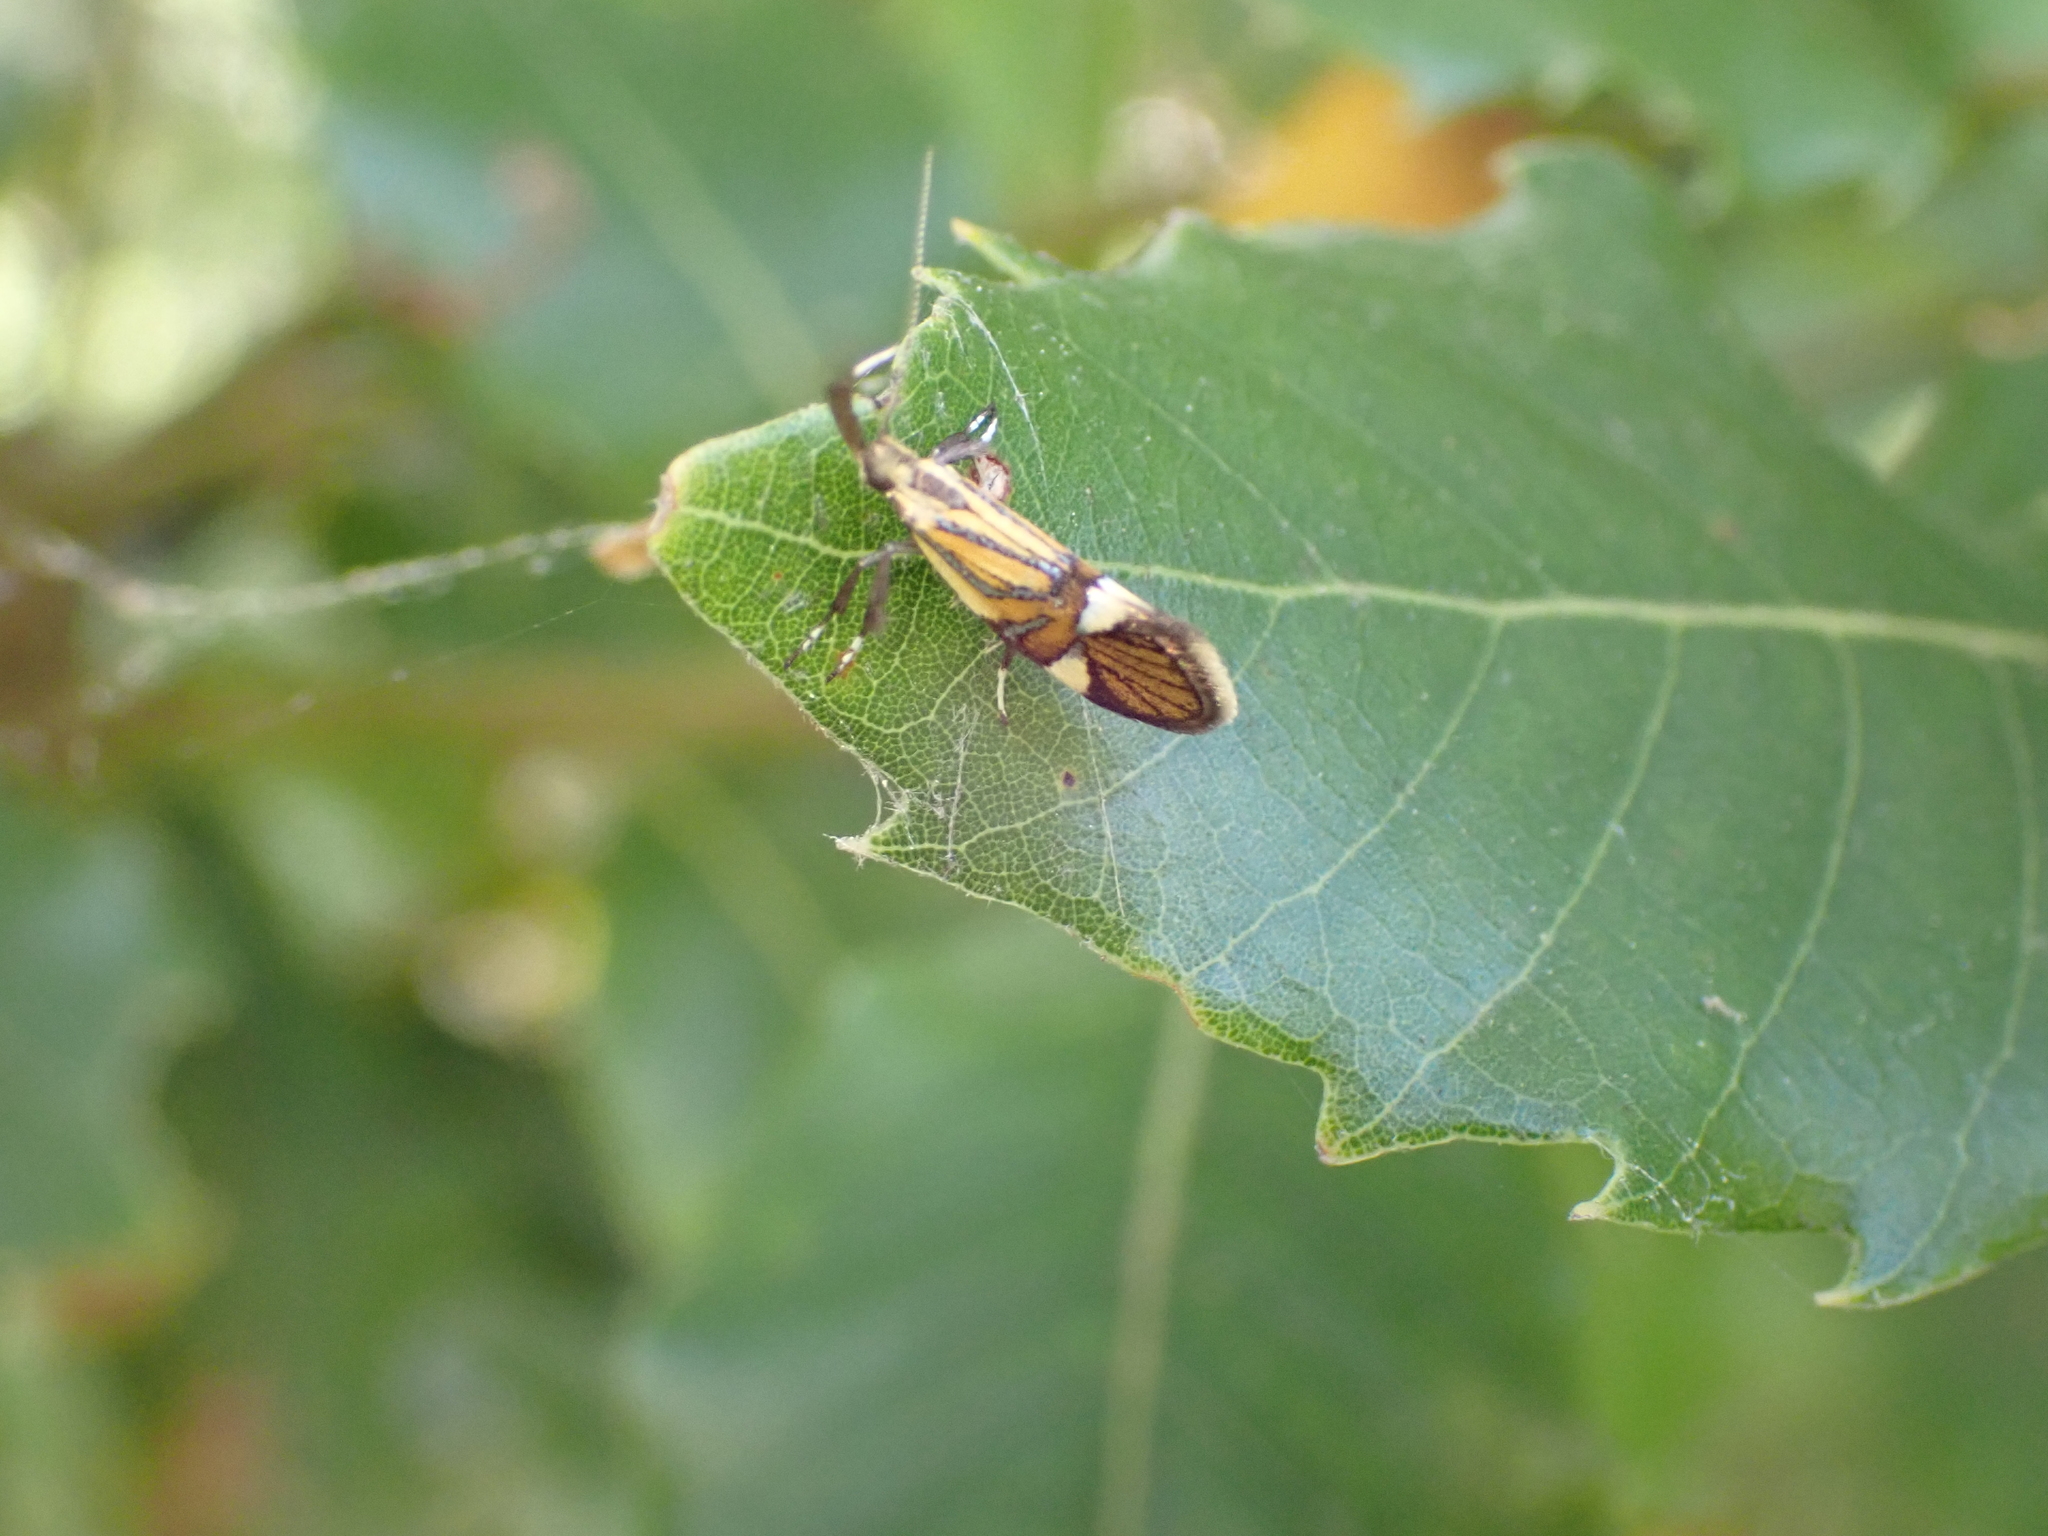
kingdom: Animalia
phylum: Arthropoda
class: Insecta
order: Lepidoptera
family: Oecophoridae
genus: Oecophora
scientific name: Oecophora Alabonia geoffrella
